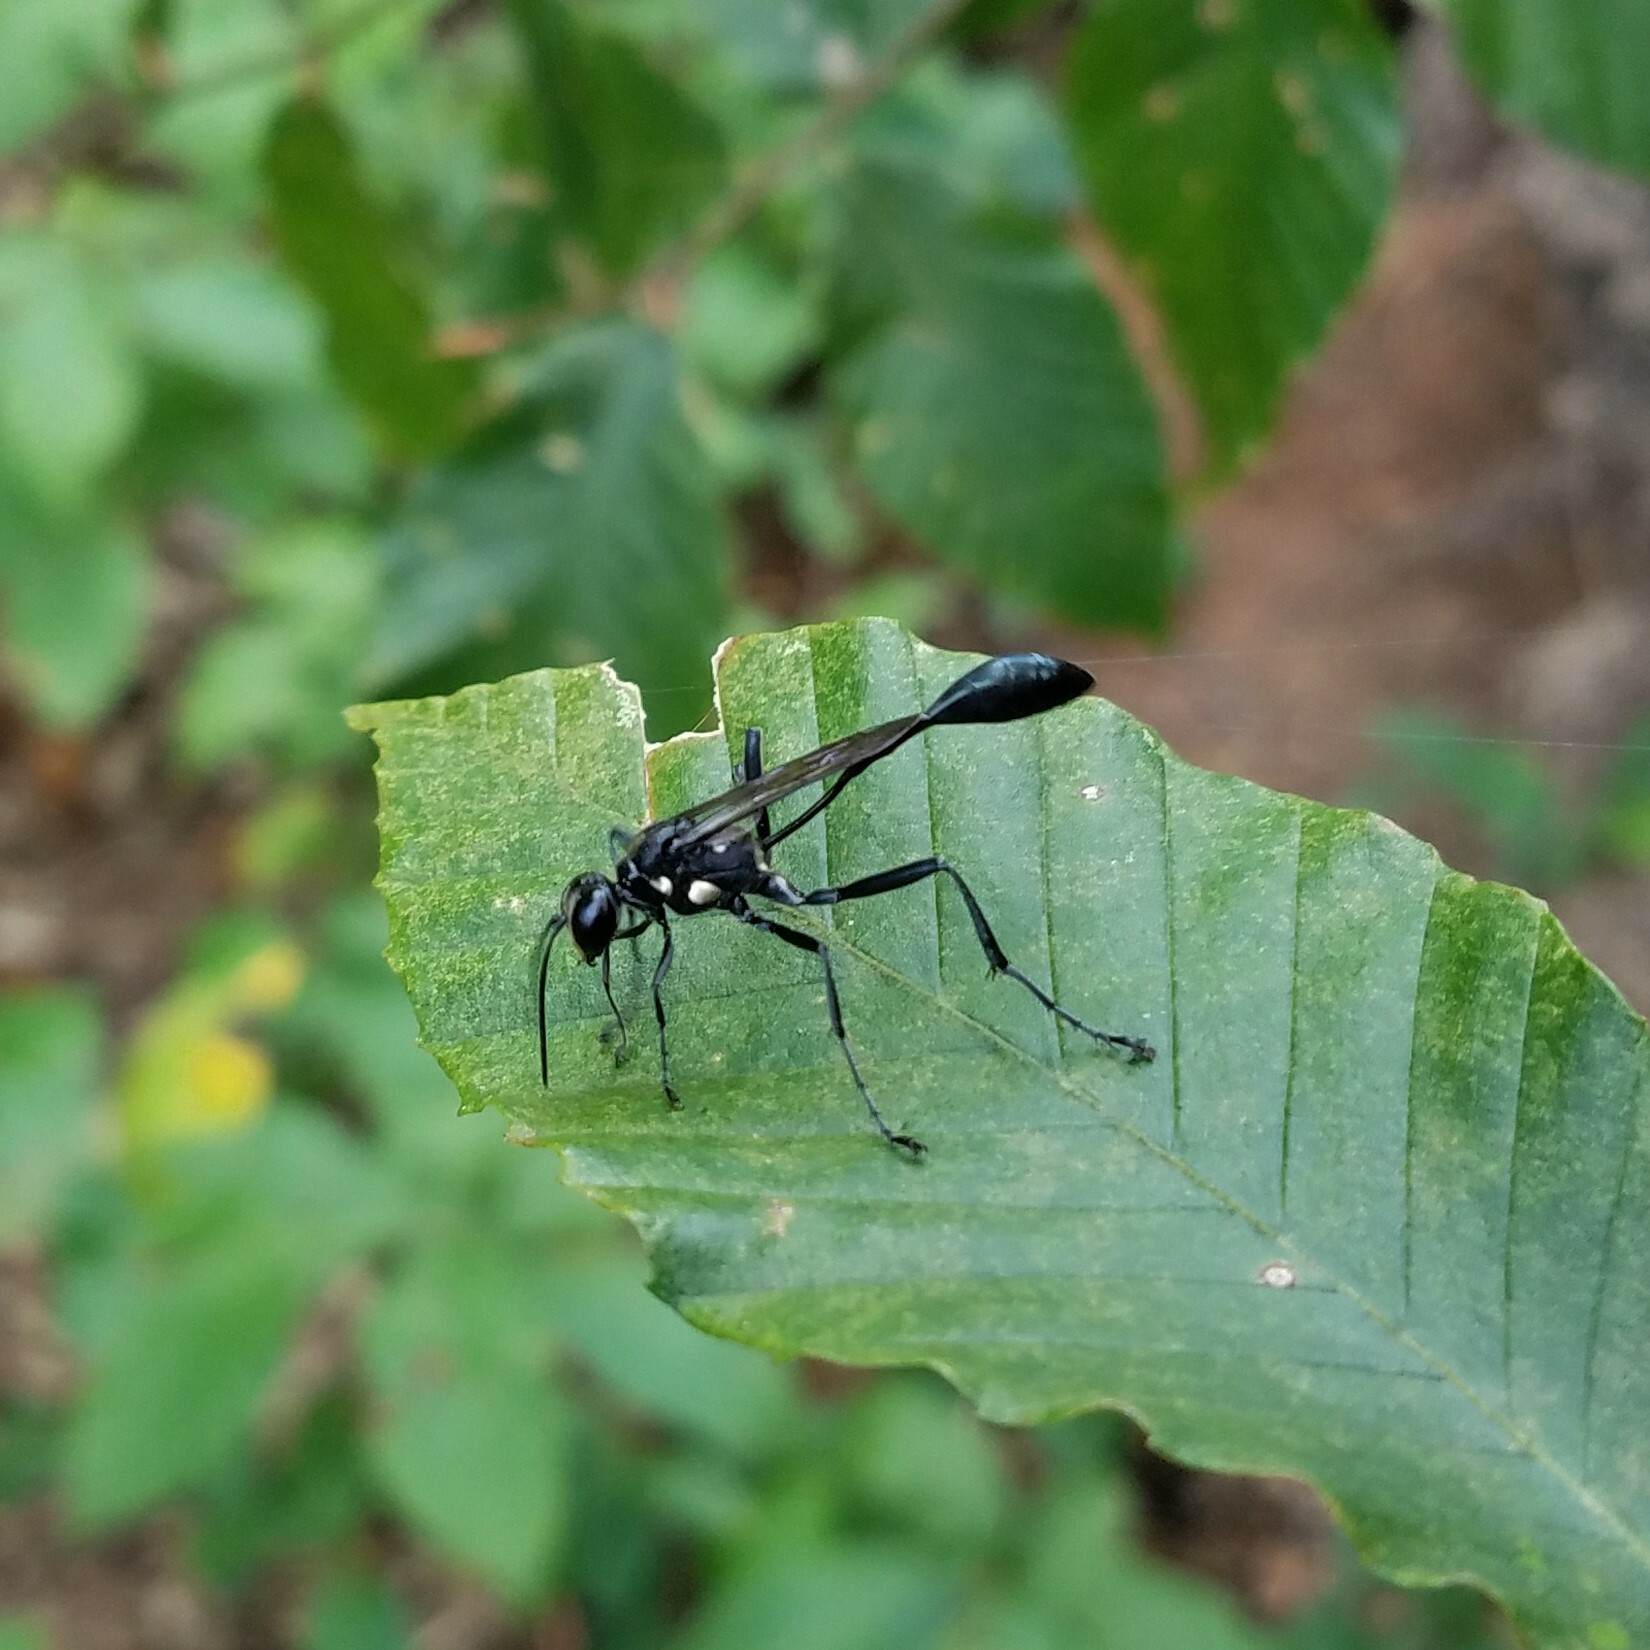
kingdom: Animalia
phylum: Arthropoda
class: Insecta
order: Hymenoptera
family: Sphecidae
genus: Eremnophila
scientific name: Eremnophila aureonotata
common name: Gold-marked thread-waisted wasp
